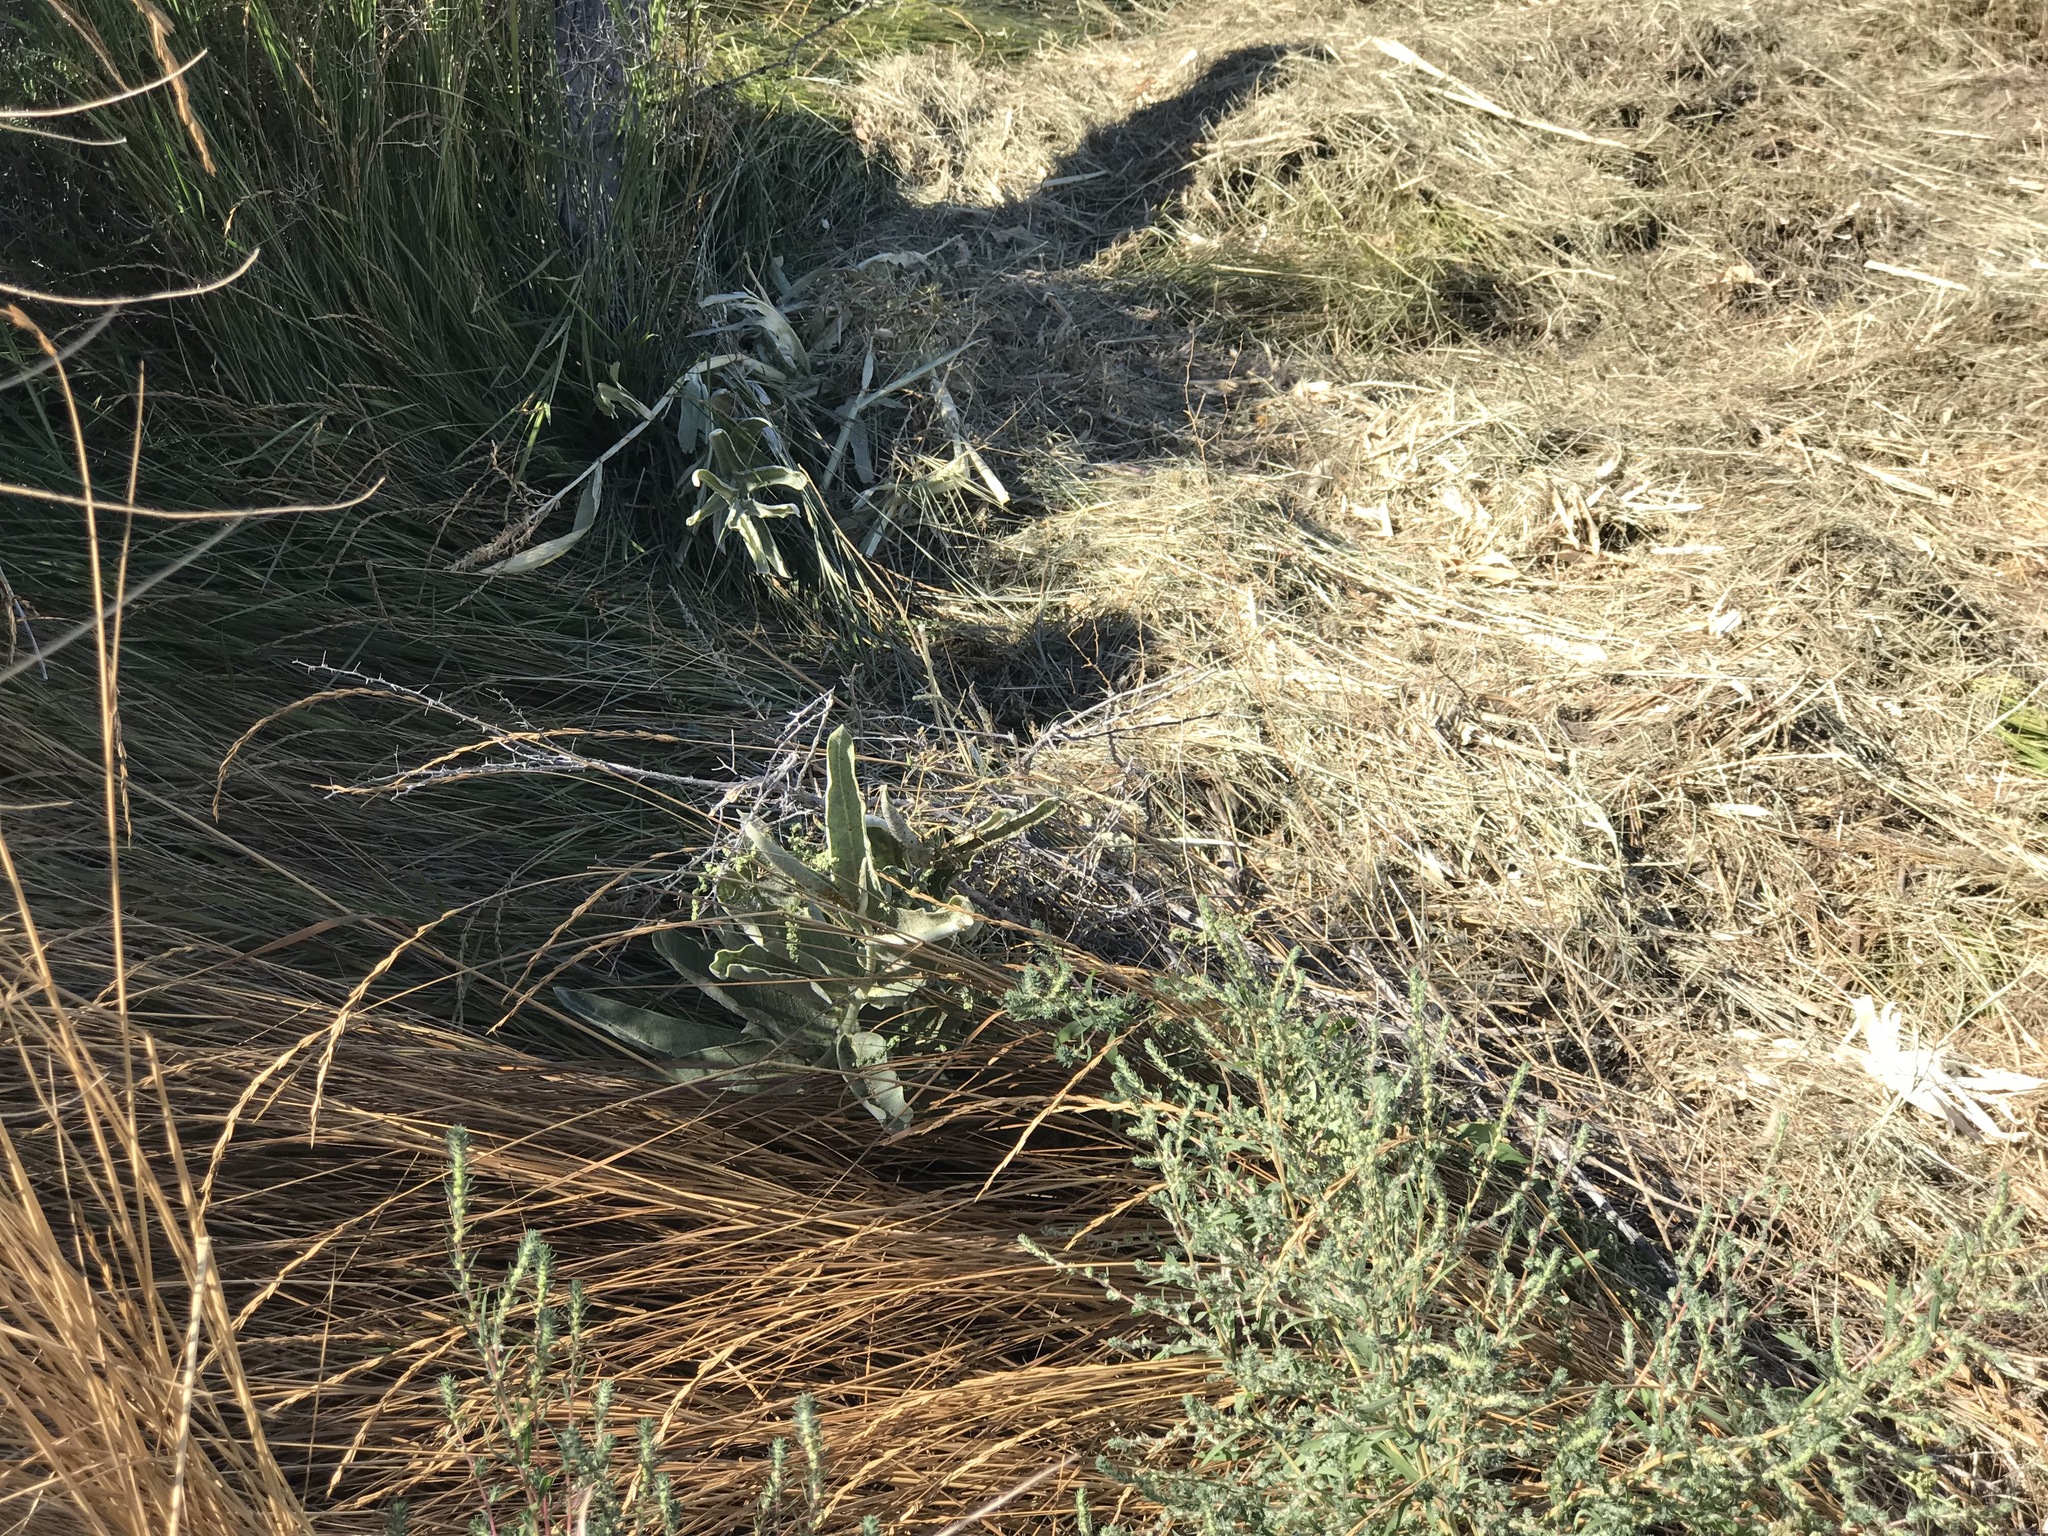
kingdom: Plantae
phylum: Tracheophyta
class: Magnoliopsida
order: Gentianales
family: Apocynaceae
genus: Asclepias
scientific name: Asclepias speciosa
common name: Showy milkweed
